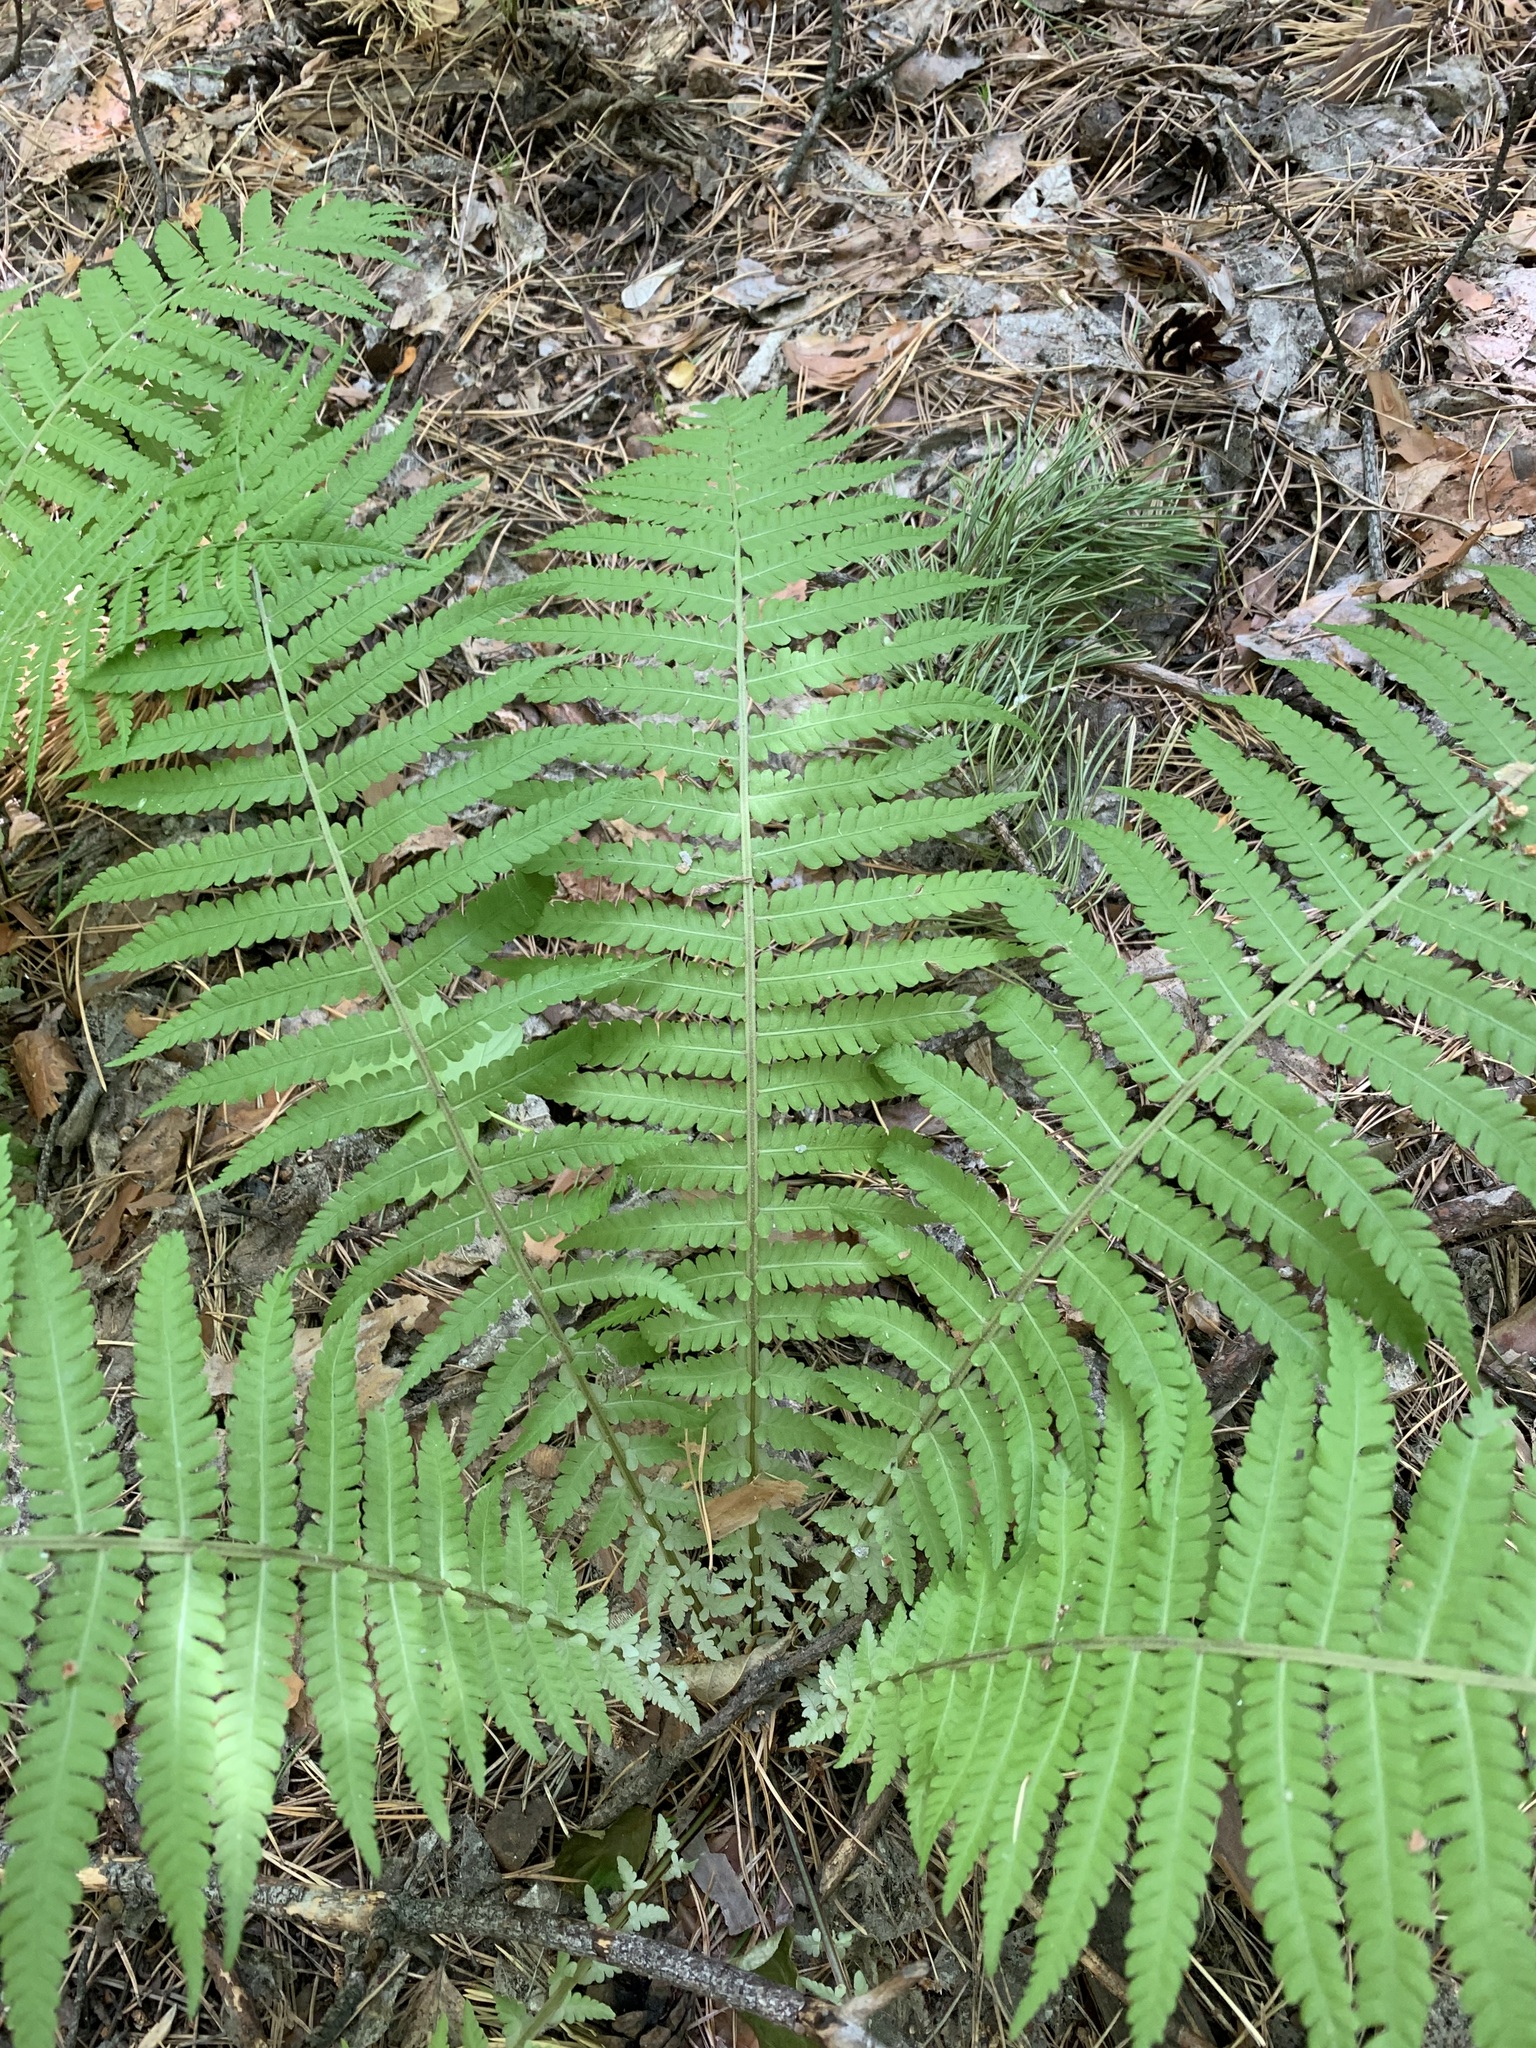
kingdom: Plantae
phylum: Tracheophyta
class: Polypodiopsida
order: Polypodiales
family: Onocleaceae
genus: Matteuccia
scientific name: Matteuccia struthiopteris
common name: Ostrich fern
